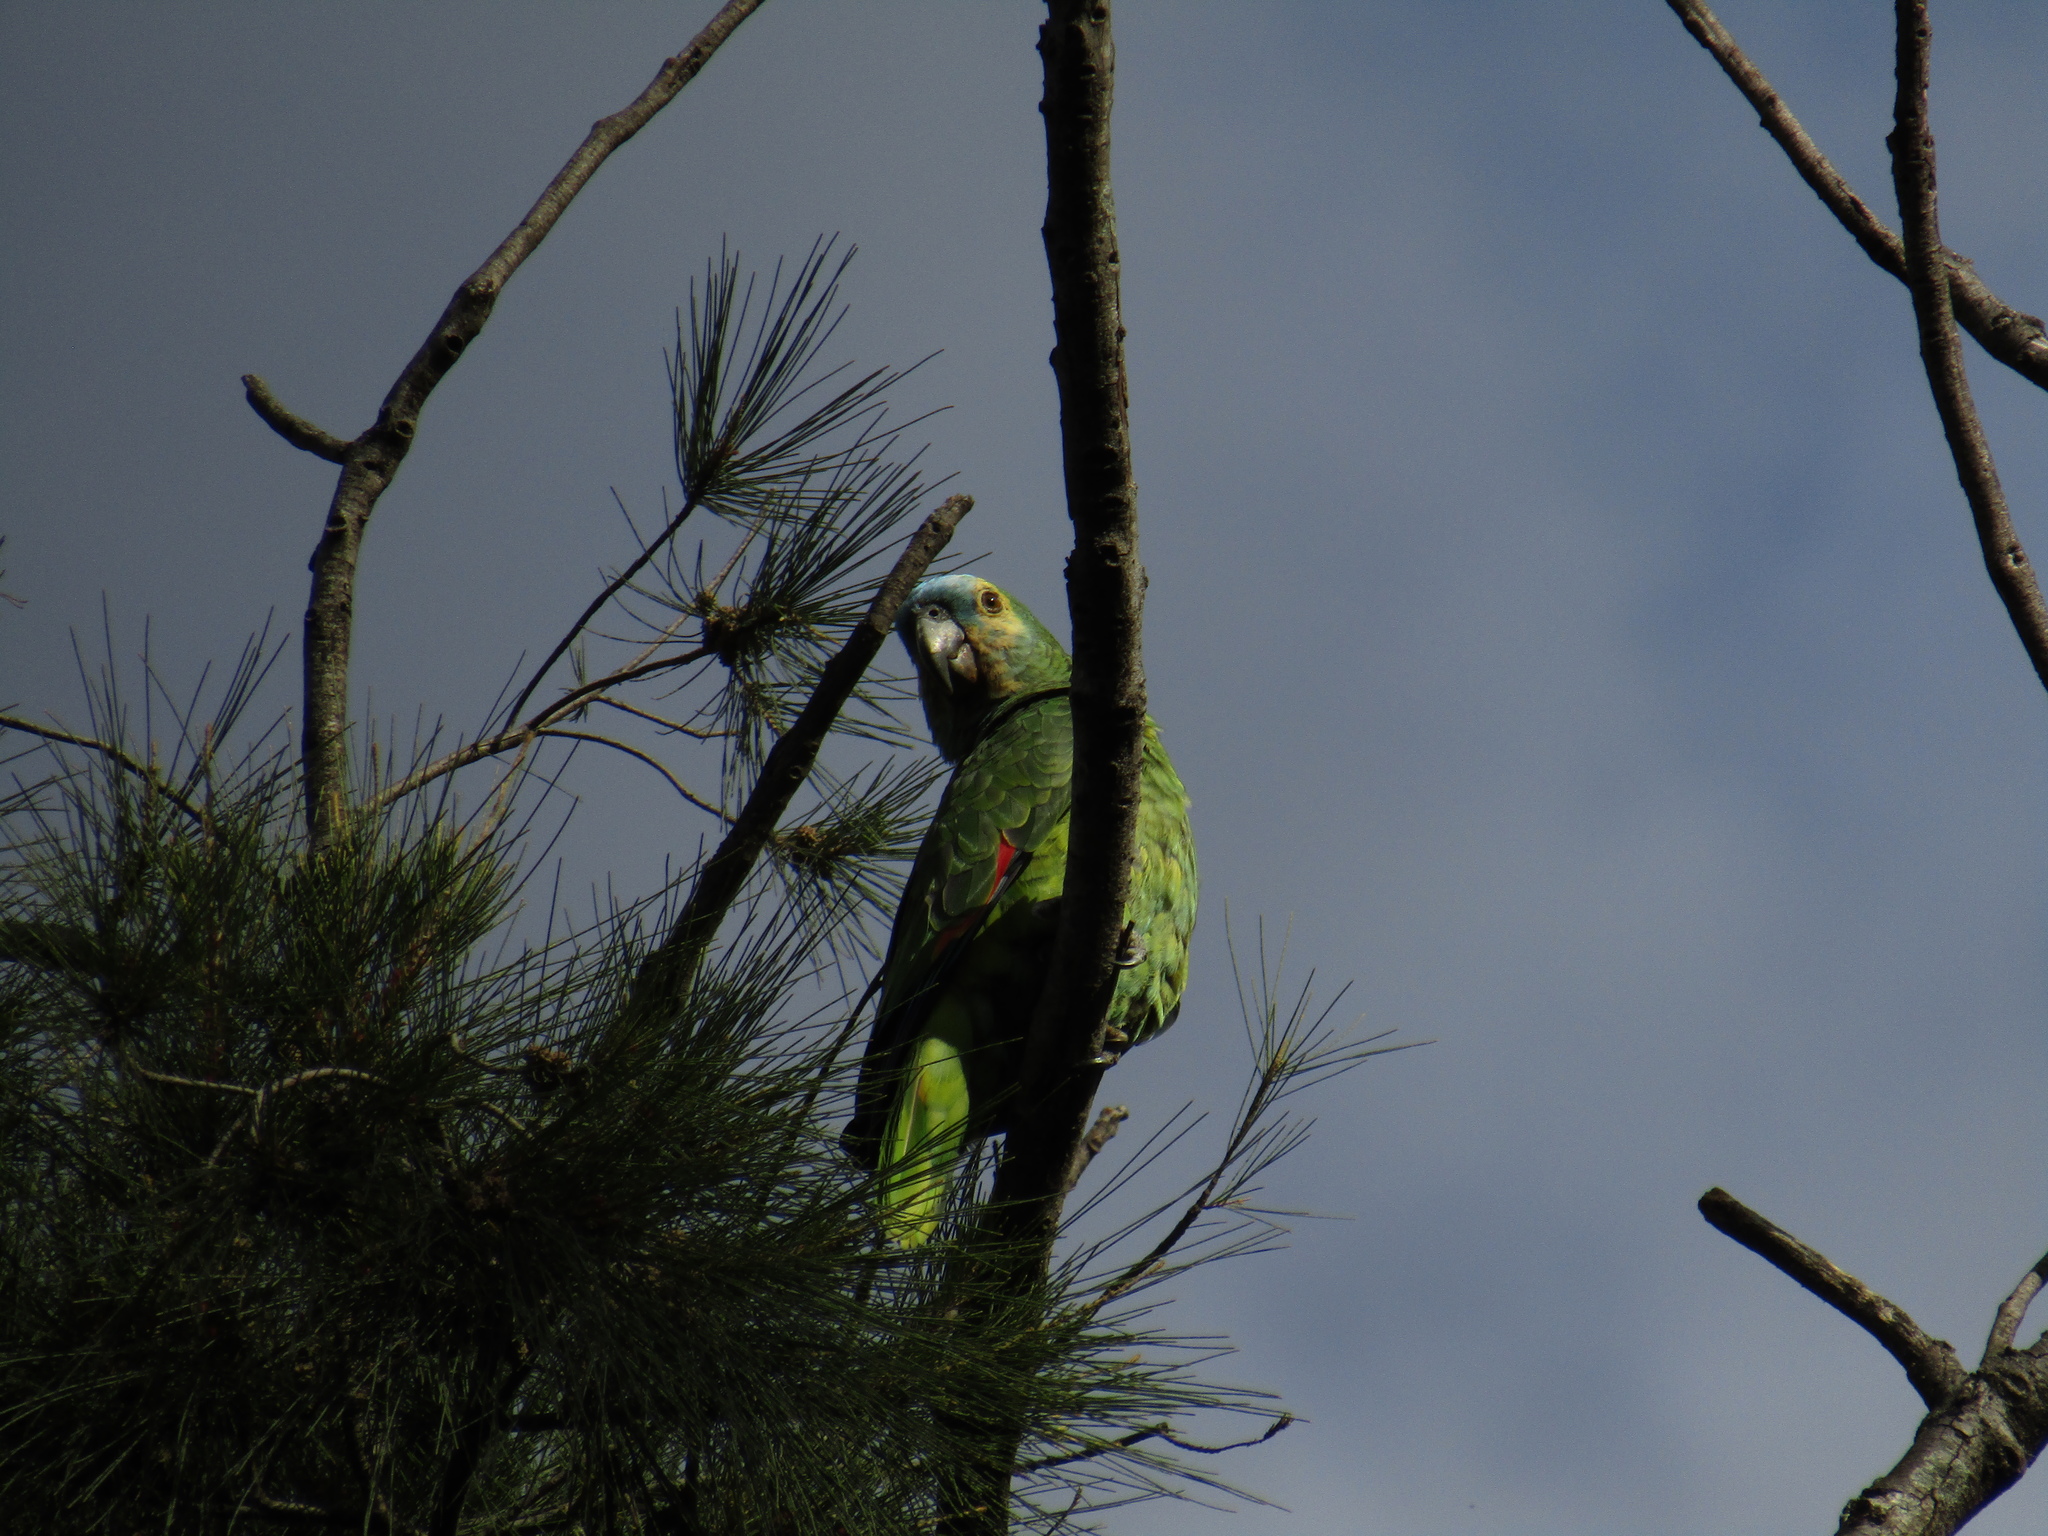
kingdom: Animalia
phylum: Chordata
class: Aves
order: Psittaciformes
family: Psittacidae
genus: Amazona
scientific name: Amazona aestiva
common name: Turquoise-fronted amazon
